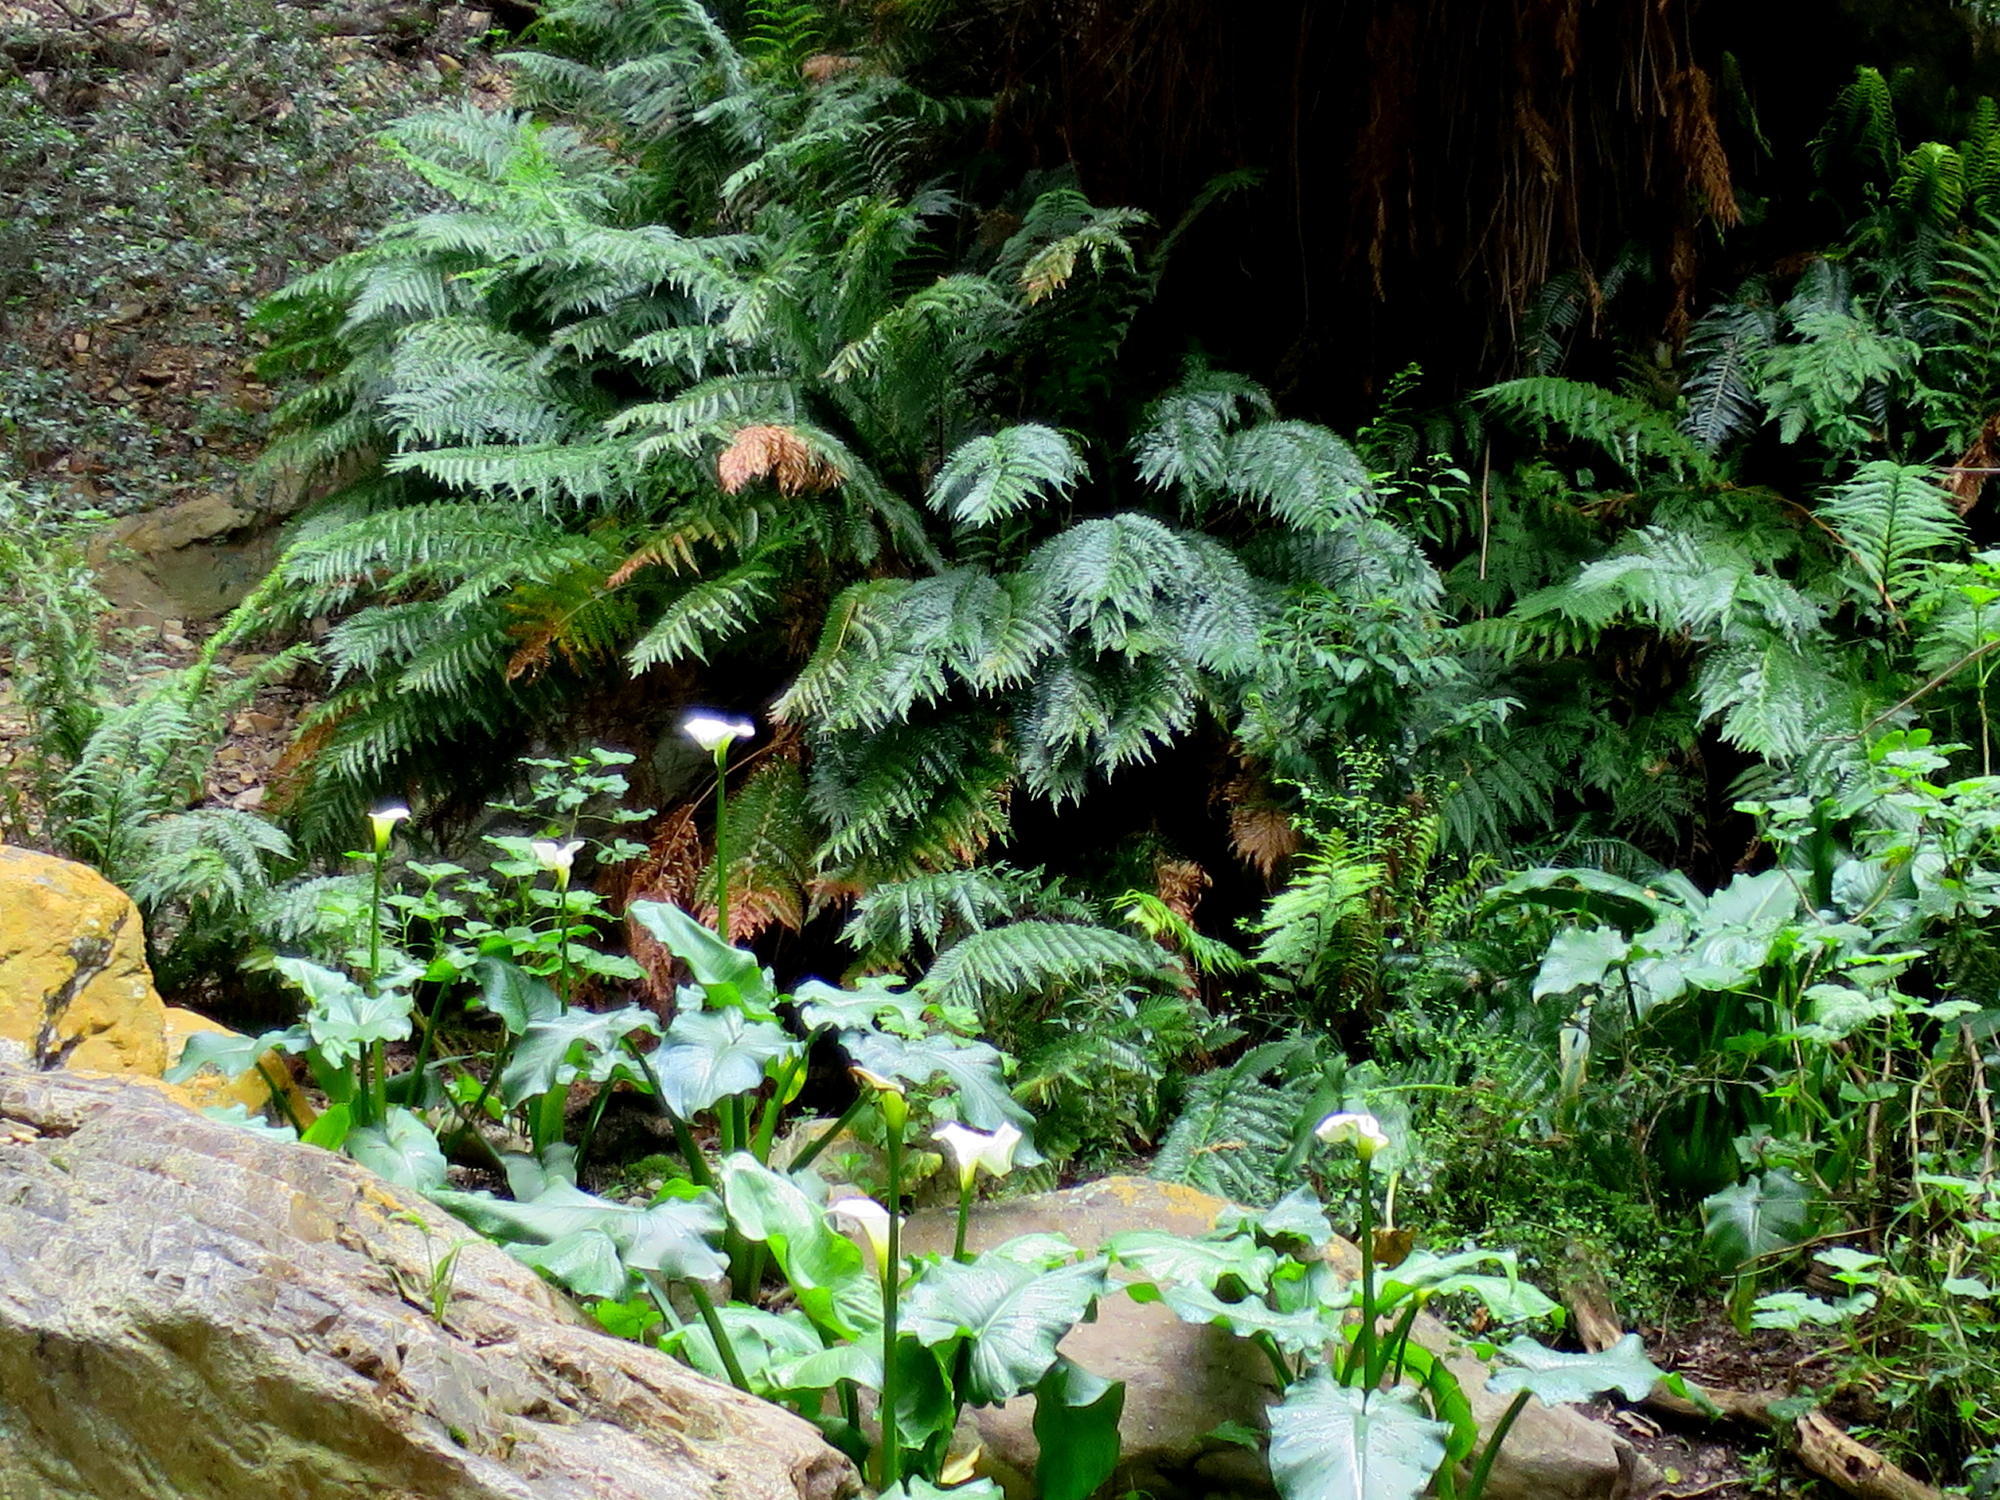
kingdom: Plantae
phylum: Tracheophyta
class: Liliopsida
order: Alismatales
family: Araceae
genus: Zantedeschia
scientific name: Zantedeschia aethiopica
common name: Altar-lily
